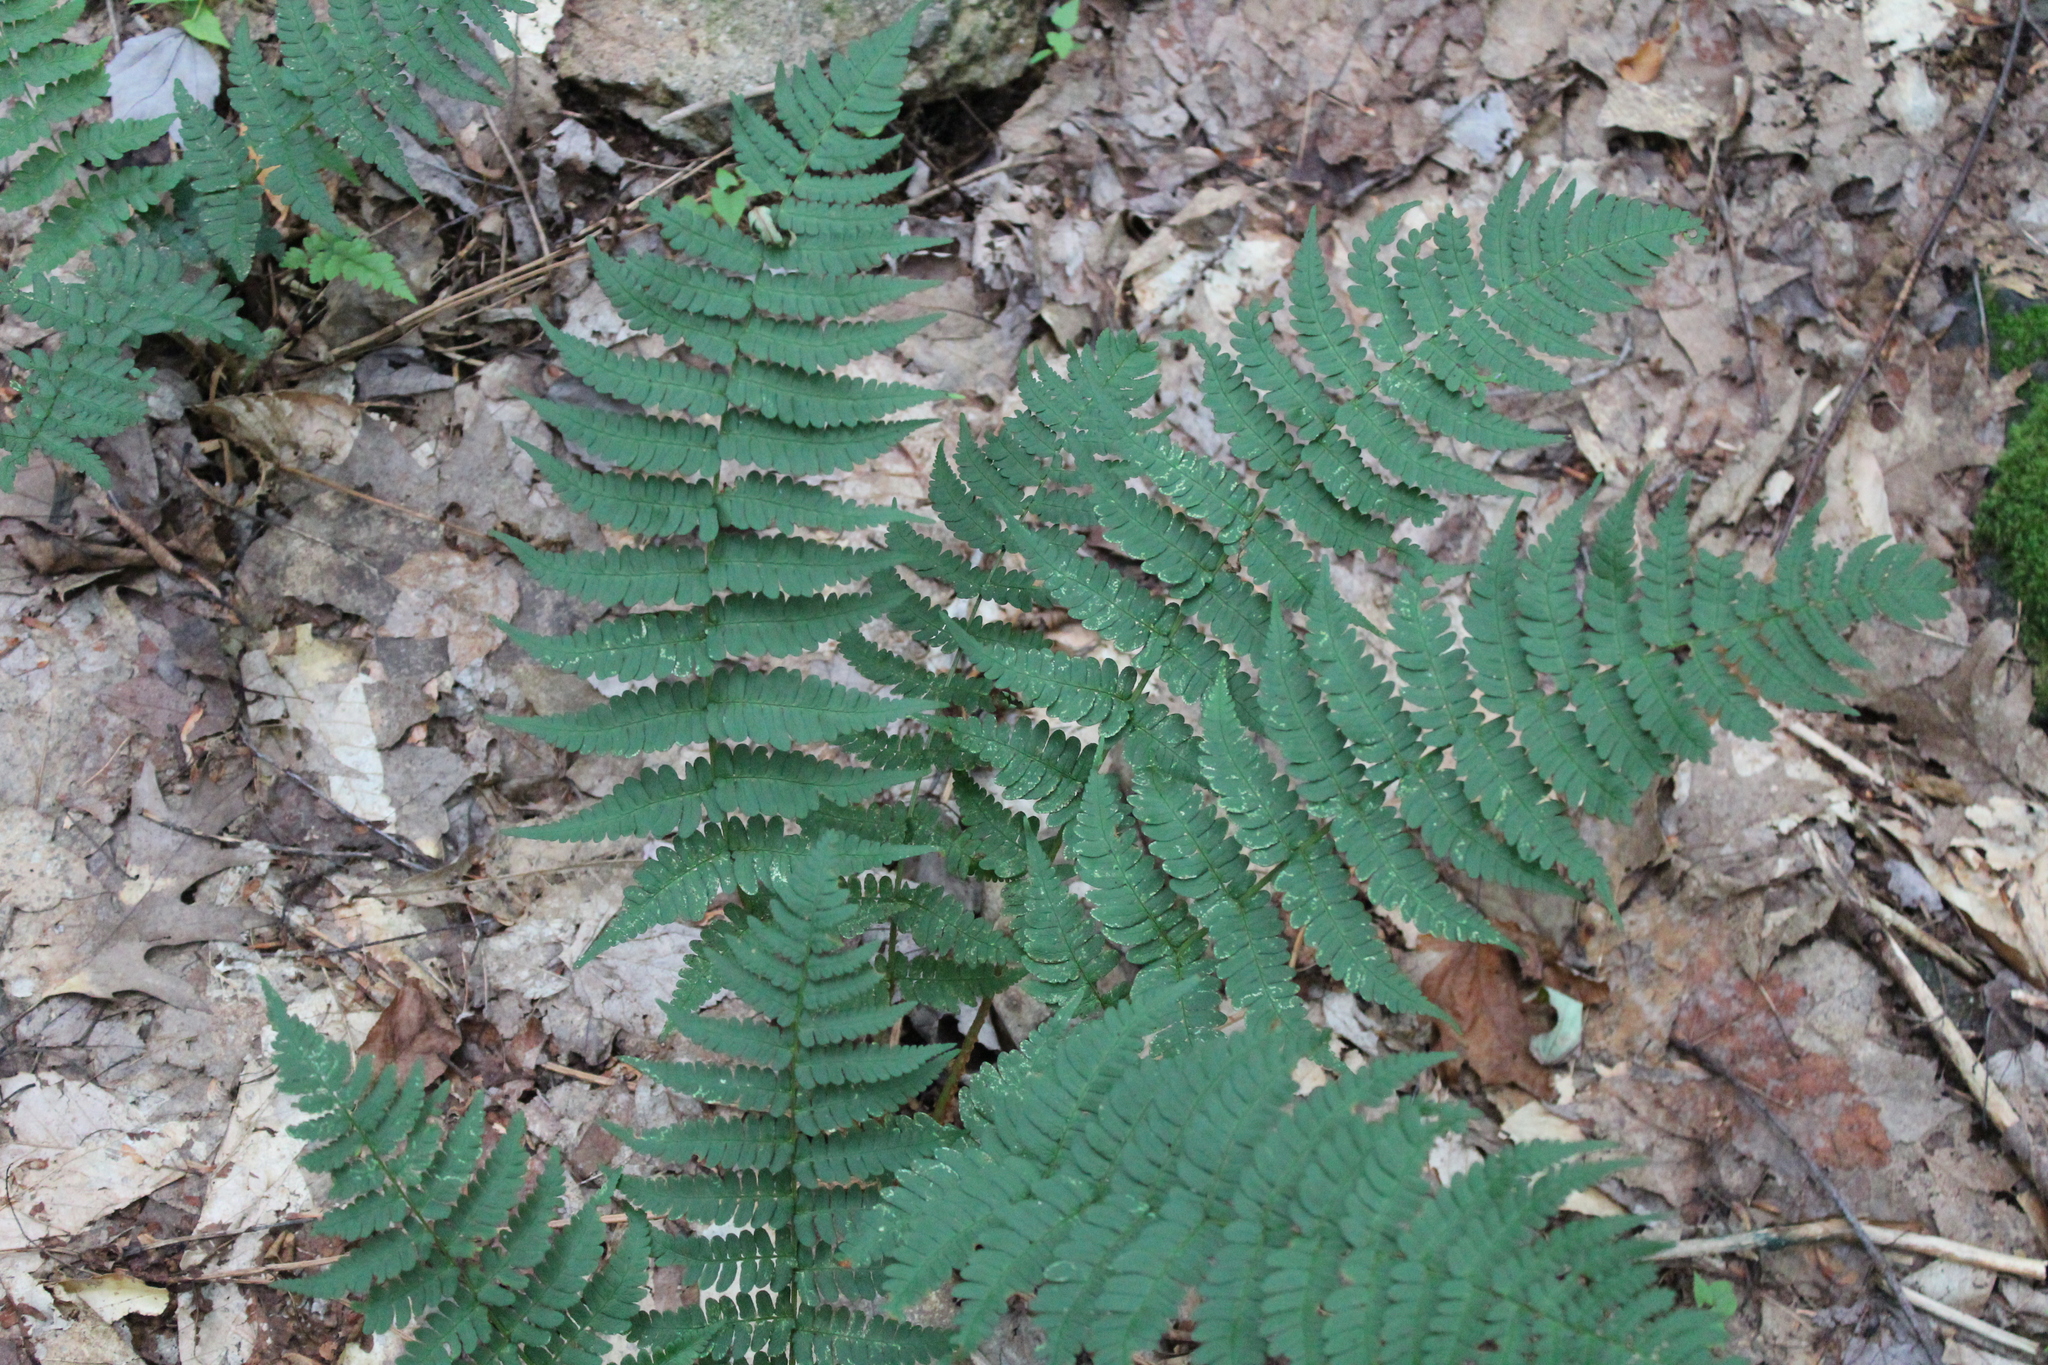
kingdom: Plantae
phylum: Tracheophyta
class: Polypodiopsida
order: Polypodiales
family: Dryopteridaceae
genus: Dryopteris
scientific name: Dryopteris marginalis
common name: Marginal wood fern
